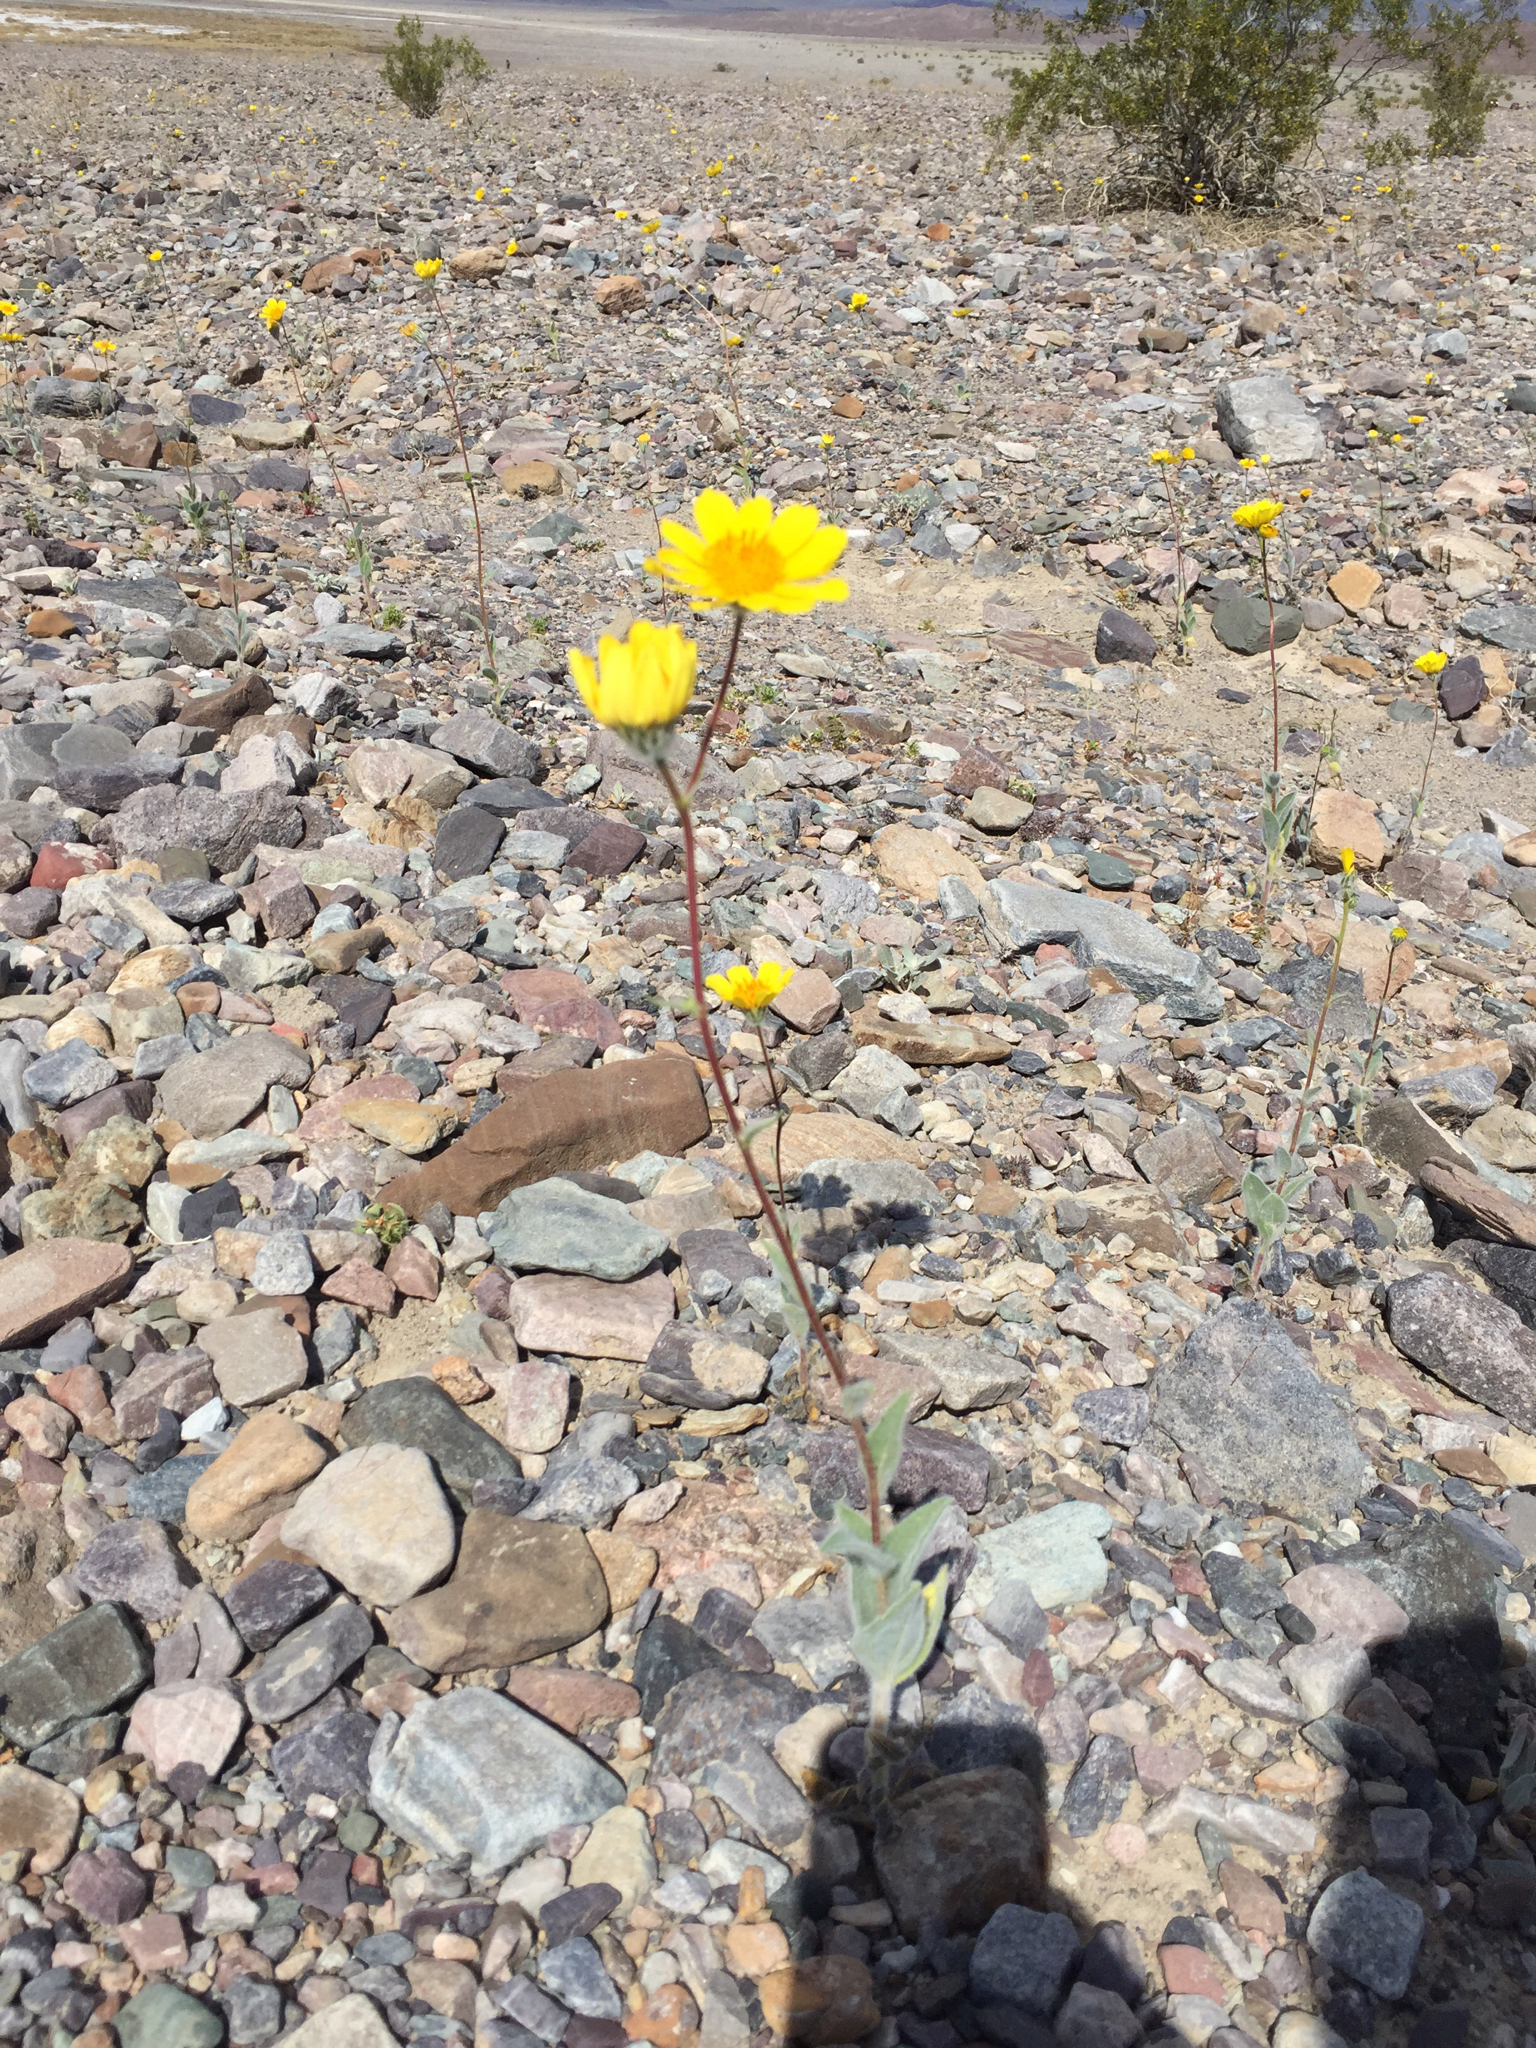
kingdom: Plantae
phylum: Tracheophyta
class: Magnoliopsida
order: Asterales
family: Asteraceae
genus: Geraea
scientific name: Geraea canescens
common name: Desert-gold
